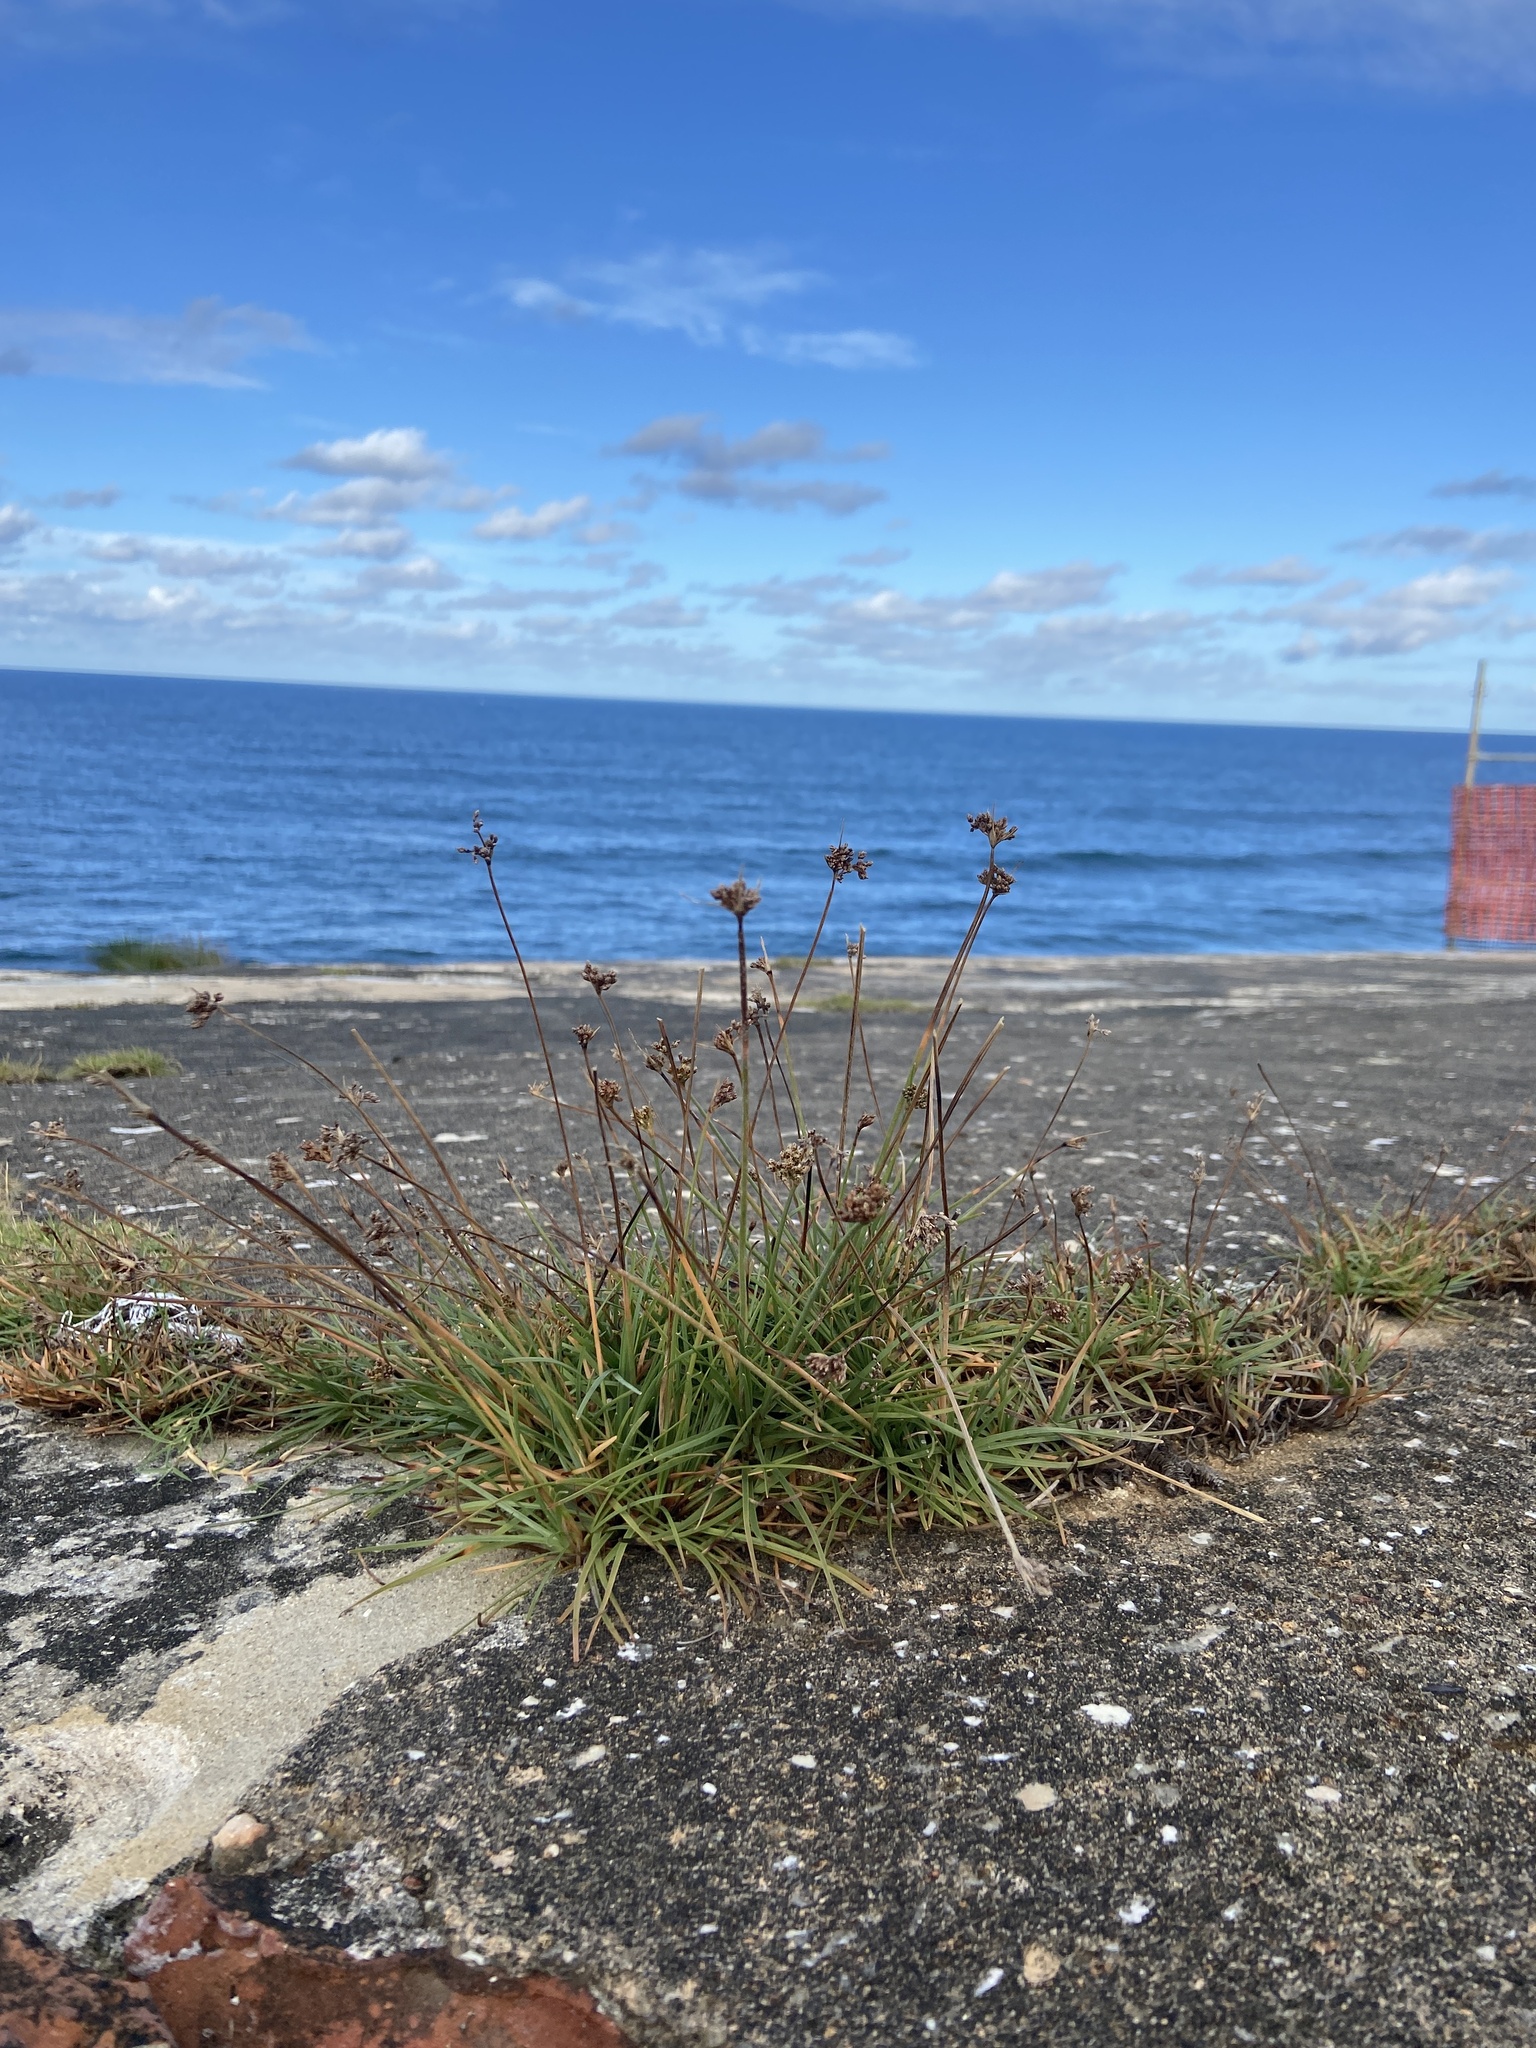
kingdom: Plantae
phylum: Tracheophyta
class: Liliopsida
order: Poales
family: Cyperaceae
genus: Fimbristylis
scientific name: Fimbristylis cymosa
